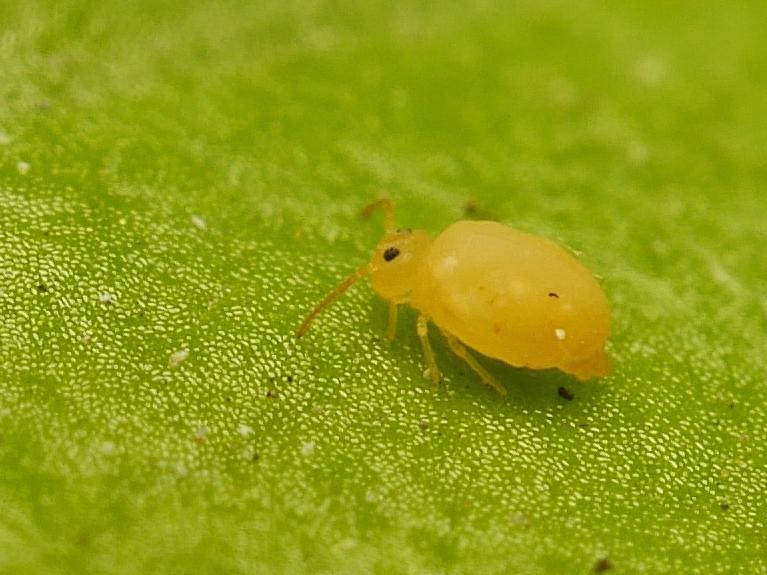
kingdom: Animalia
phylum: Arthropoda
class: Collembola
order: Symphypleona
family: Bourletiellidae
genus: Deuterosminthurus
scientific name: Deuterosminthurus pallipes
